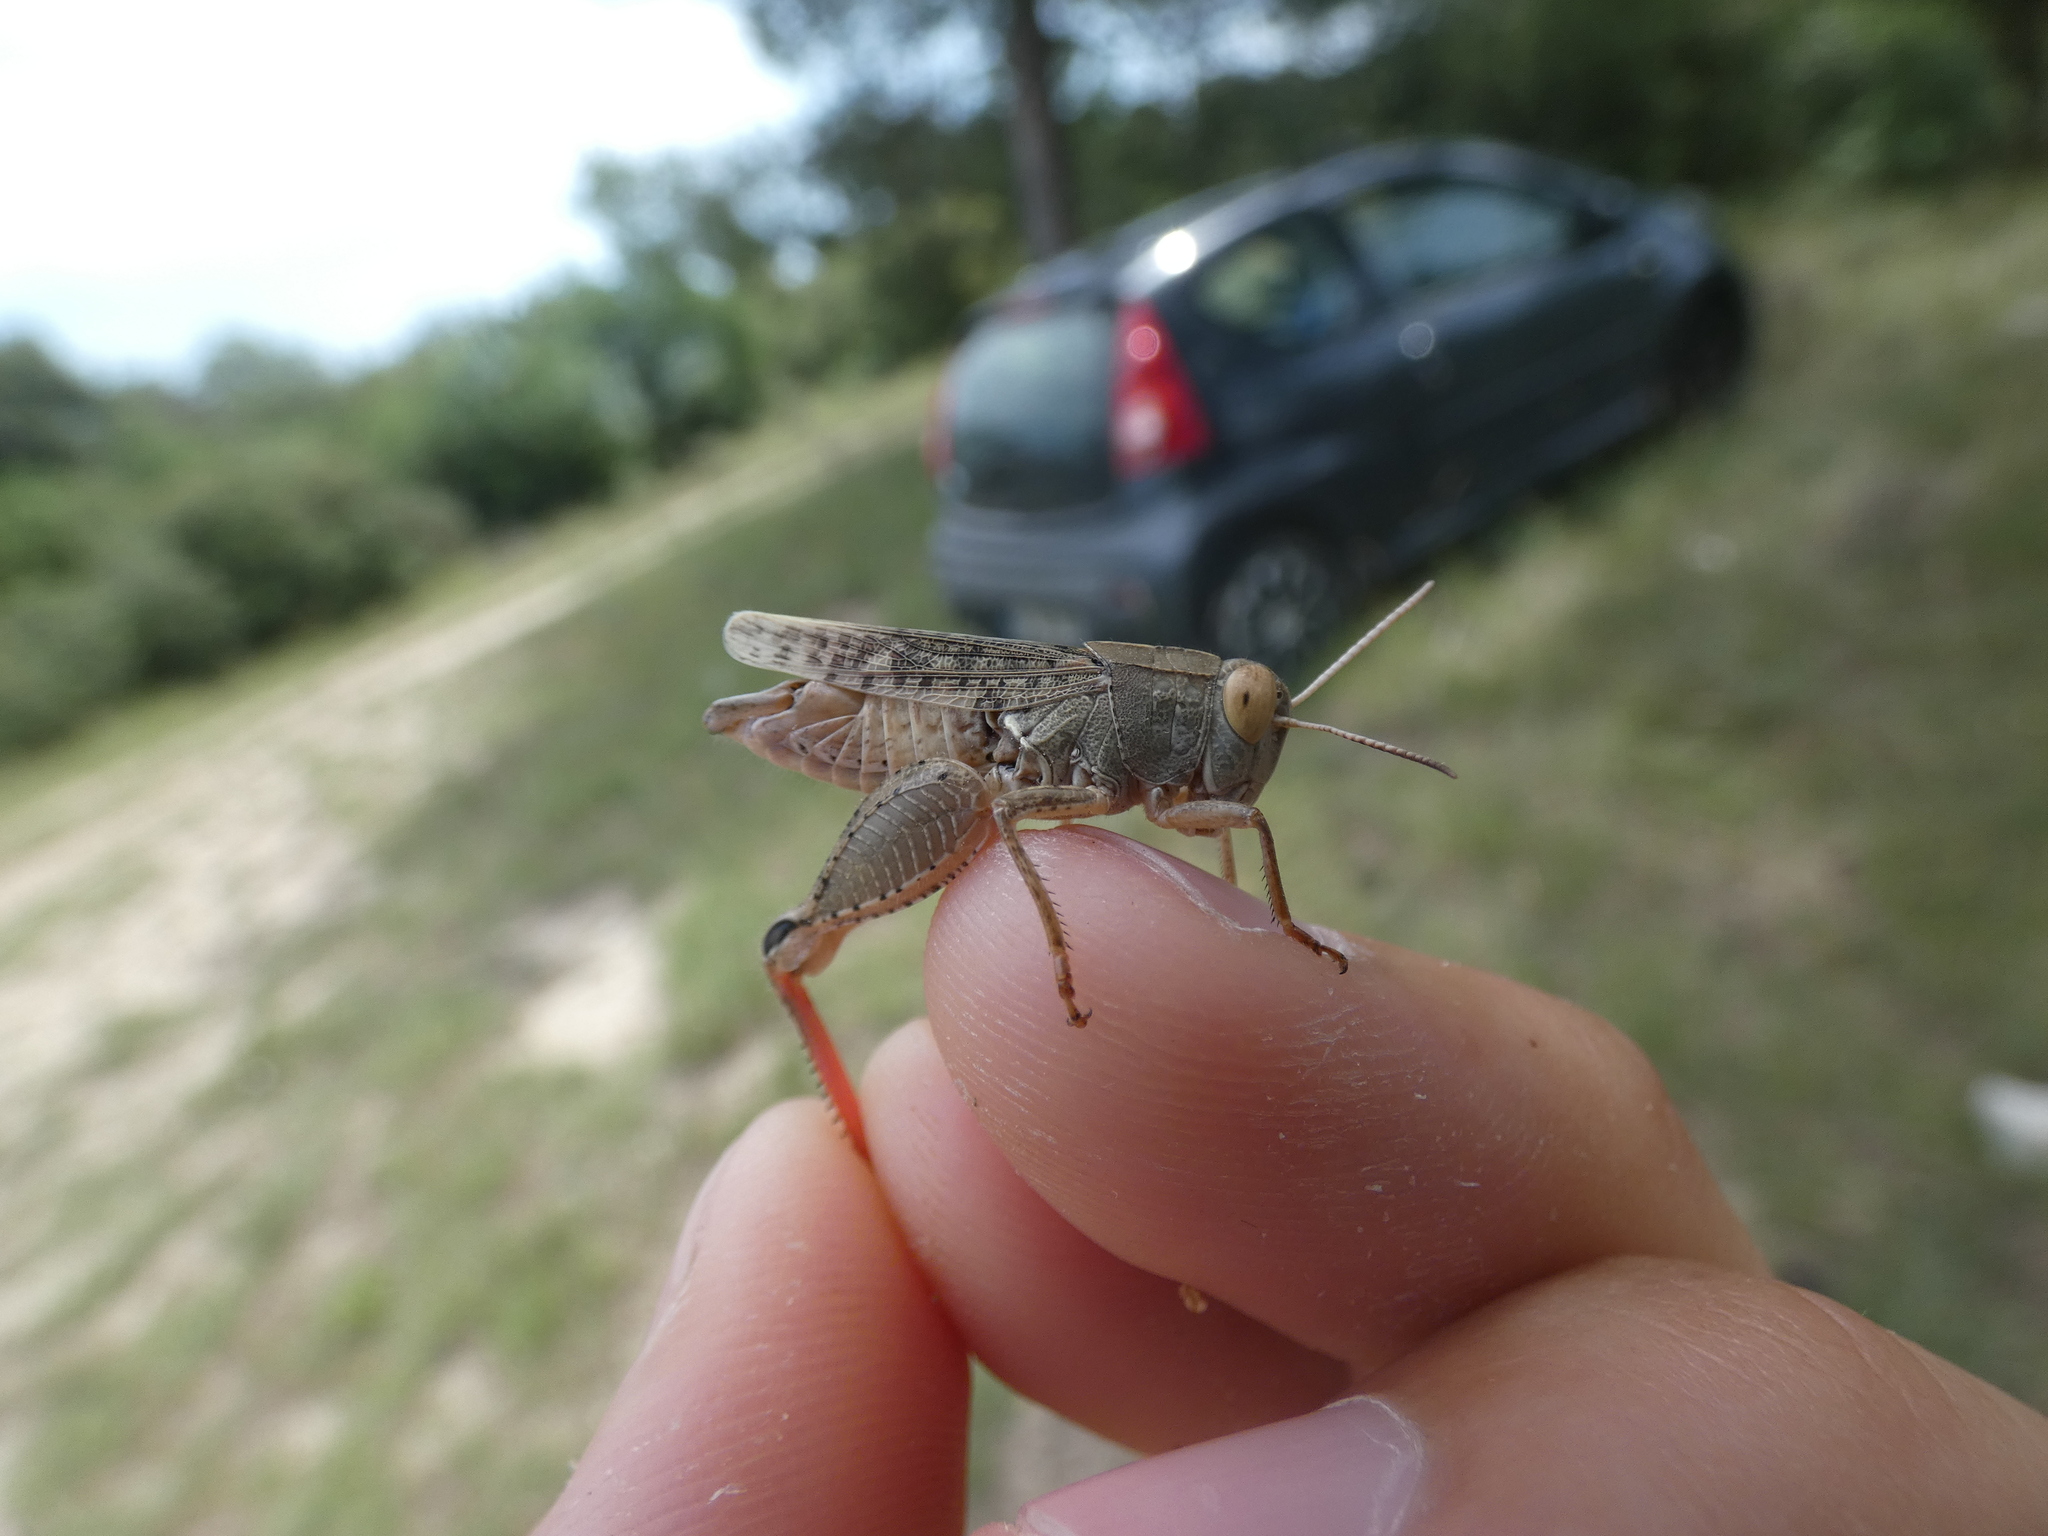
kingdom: Animalia
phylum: Arthropoda
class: Insecta
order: Orthoptera
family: Acrididae
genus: Calliptamus
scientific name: Calliptamus barbarus
